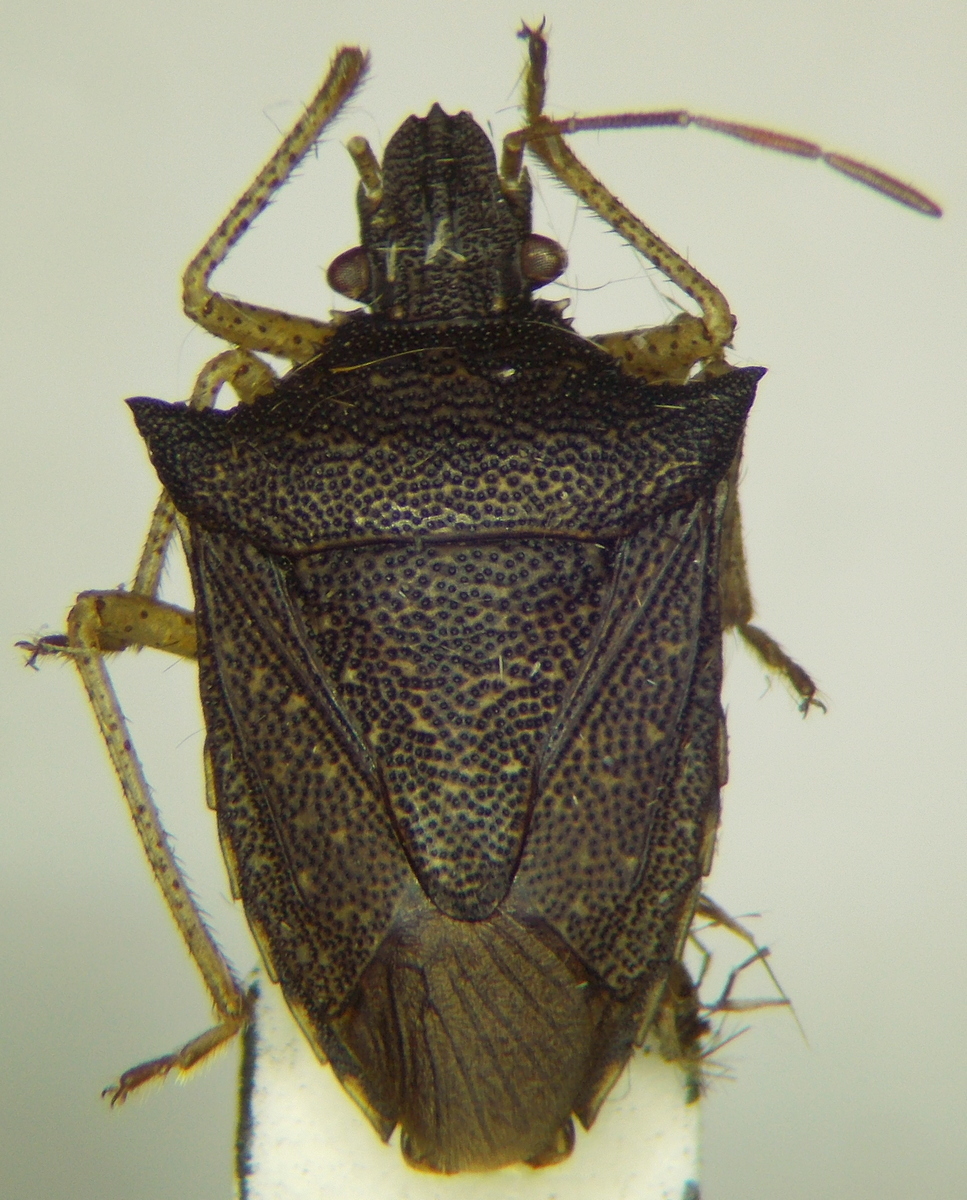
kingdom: Animalia
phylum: Arthropoda
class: Insecta
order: Hemiptera
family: Pentatomidae
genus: Berecynthus
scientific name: Berecynthus hastator
